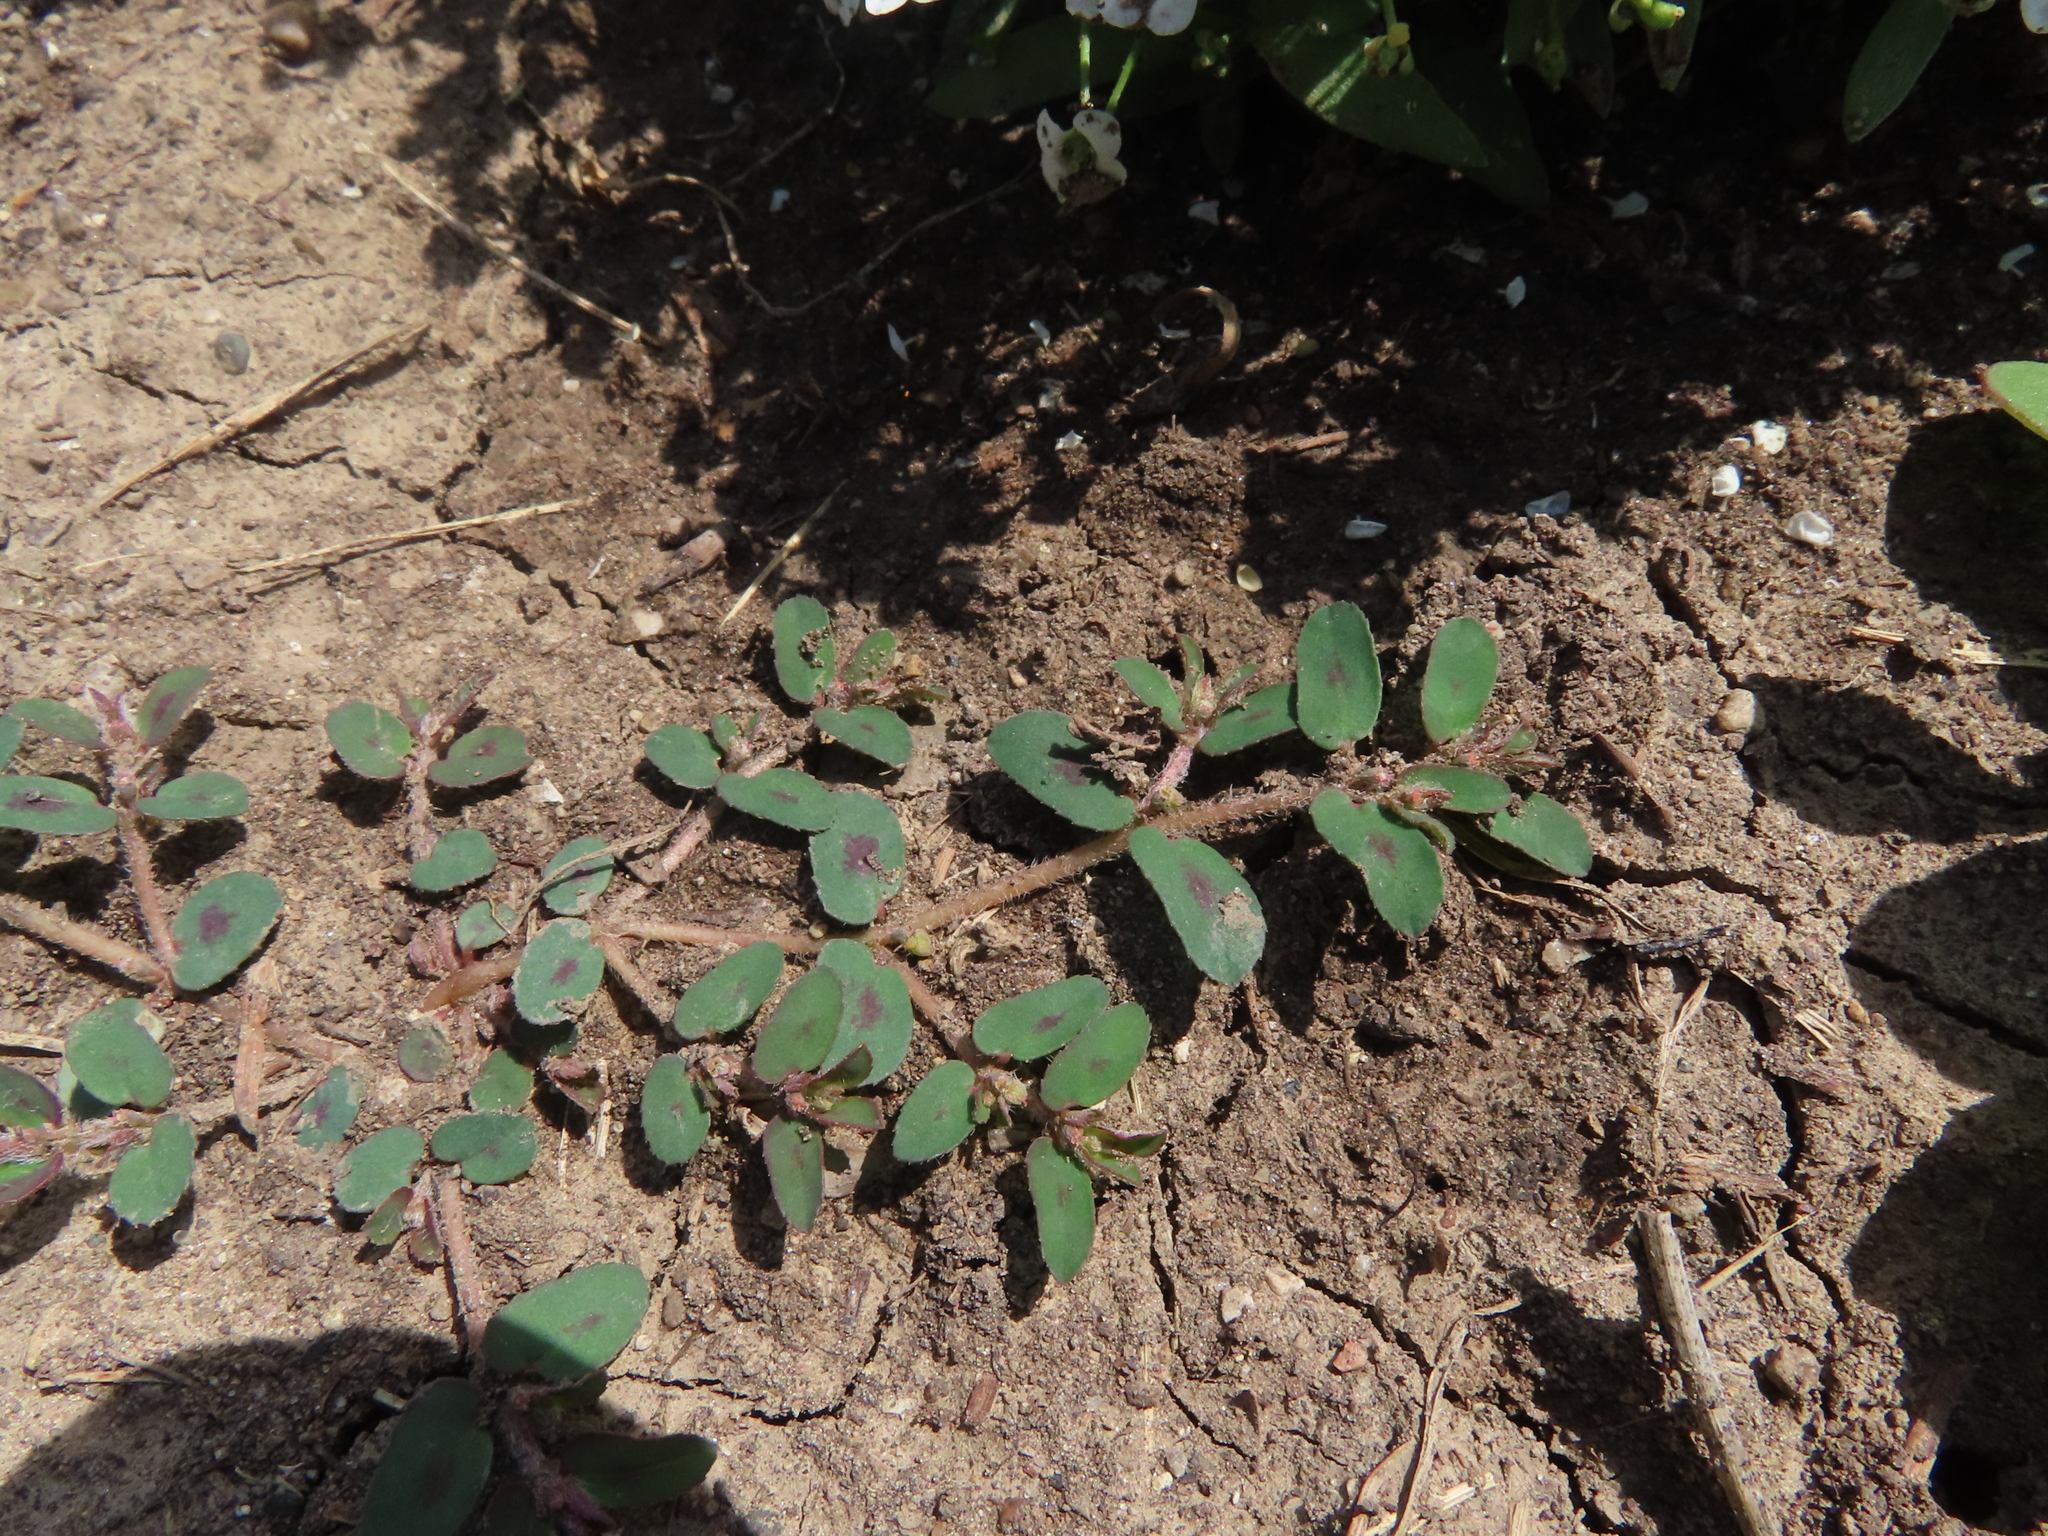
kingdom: Plantae
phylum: Tracheophyta
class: Magnoliopsida
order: Malpighiales
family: Euphorbiaceae
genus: Euphorbia
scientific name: Euphorbia maculata
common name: Spotted spurge
